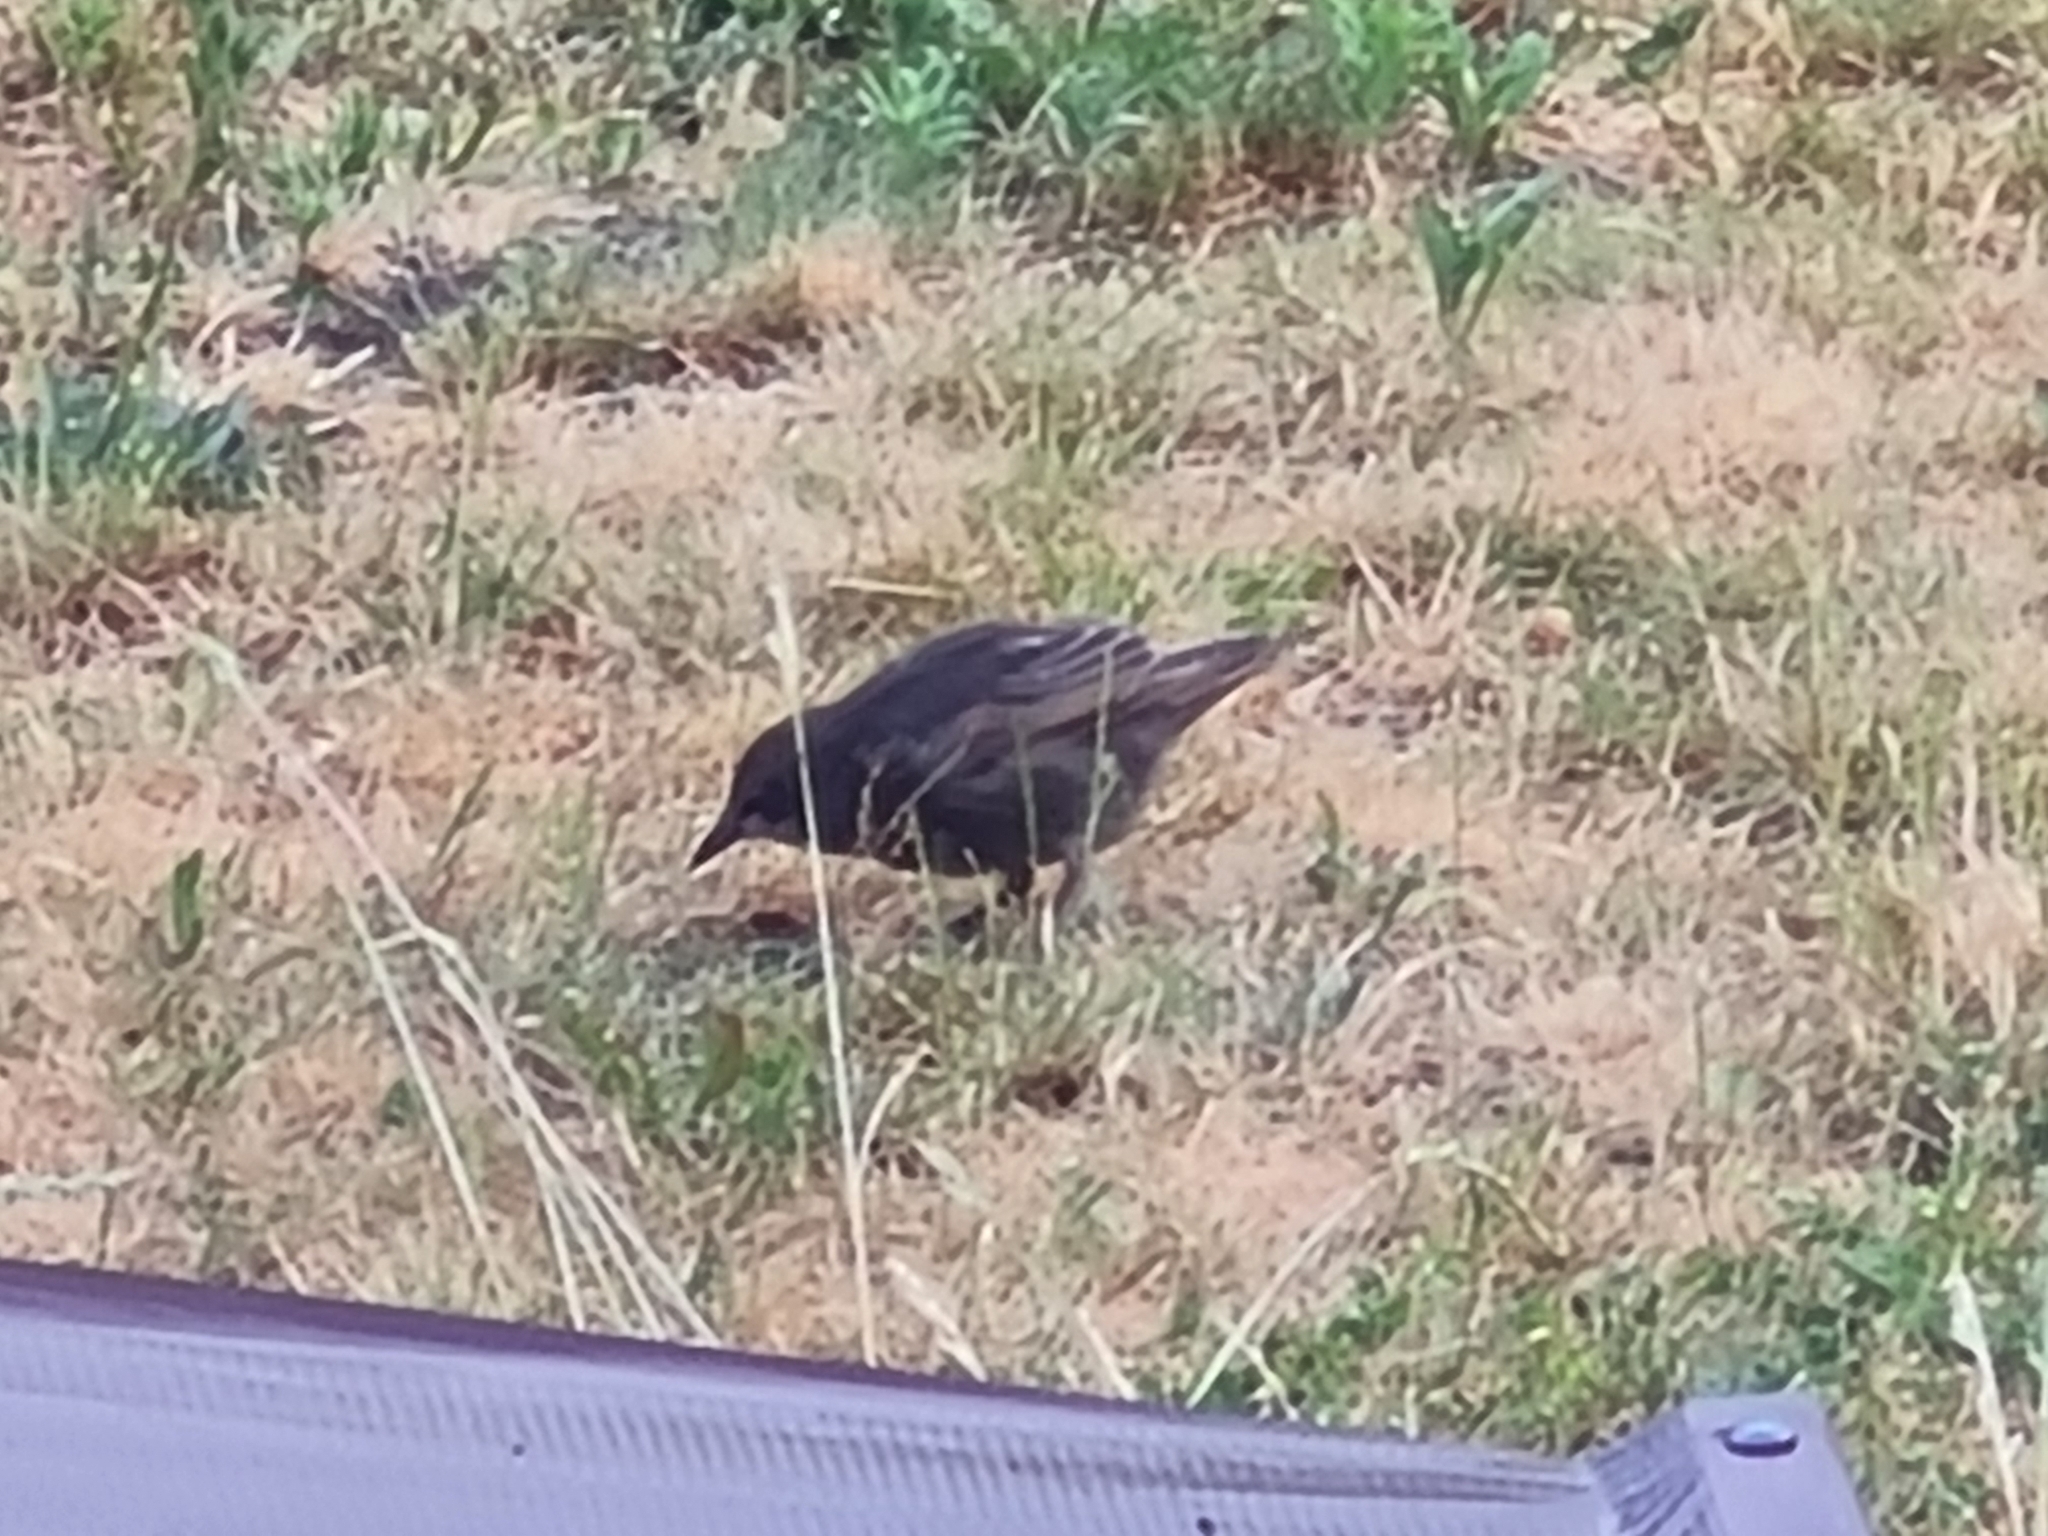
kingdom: Animalia
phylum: Chordata
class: Aves
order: Passeriformes
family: Sturnidae
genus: Sturnus
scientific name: Sturnus vulgaris
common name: Common starling
